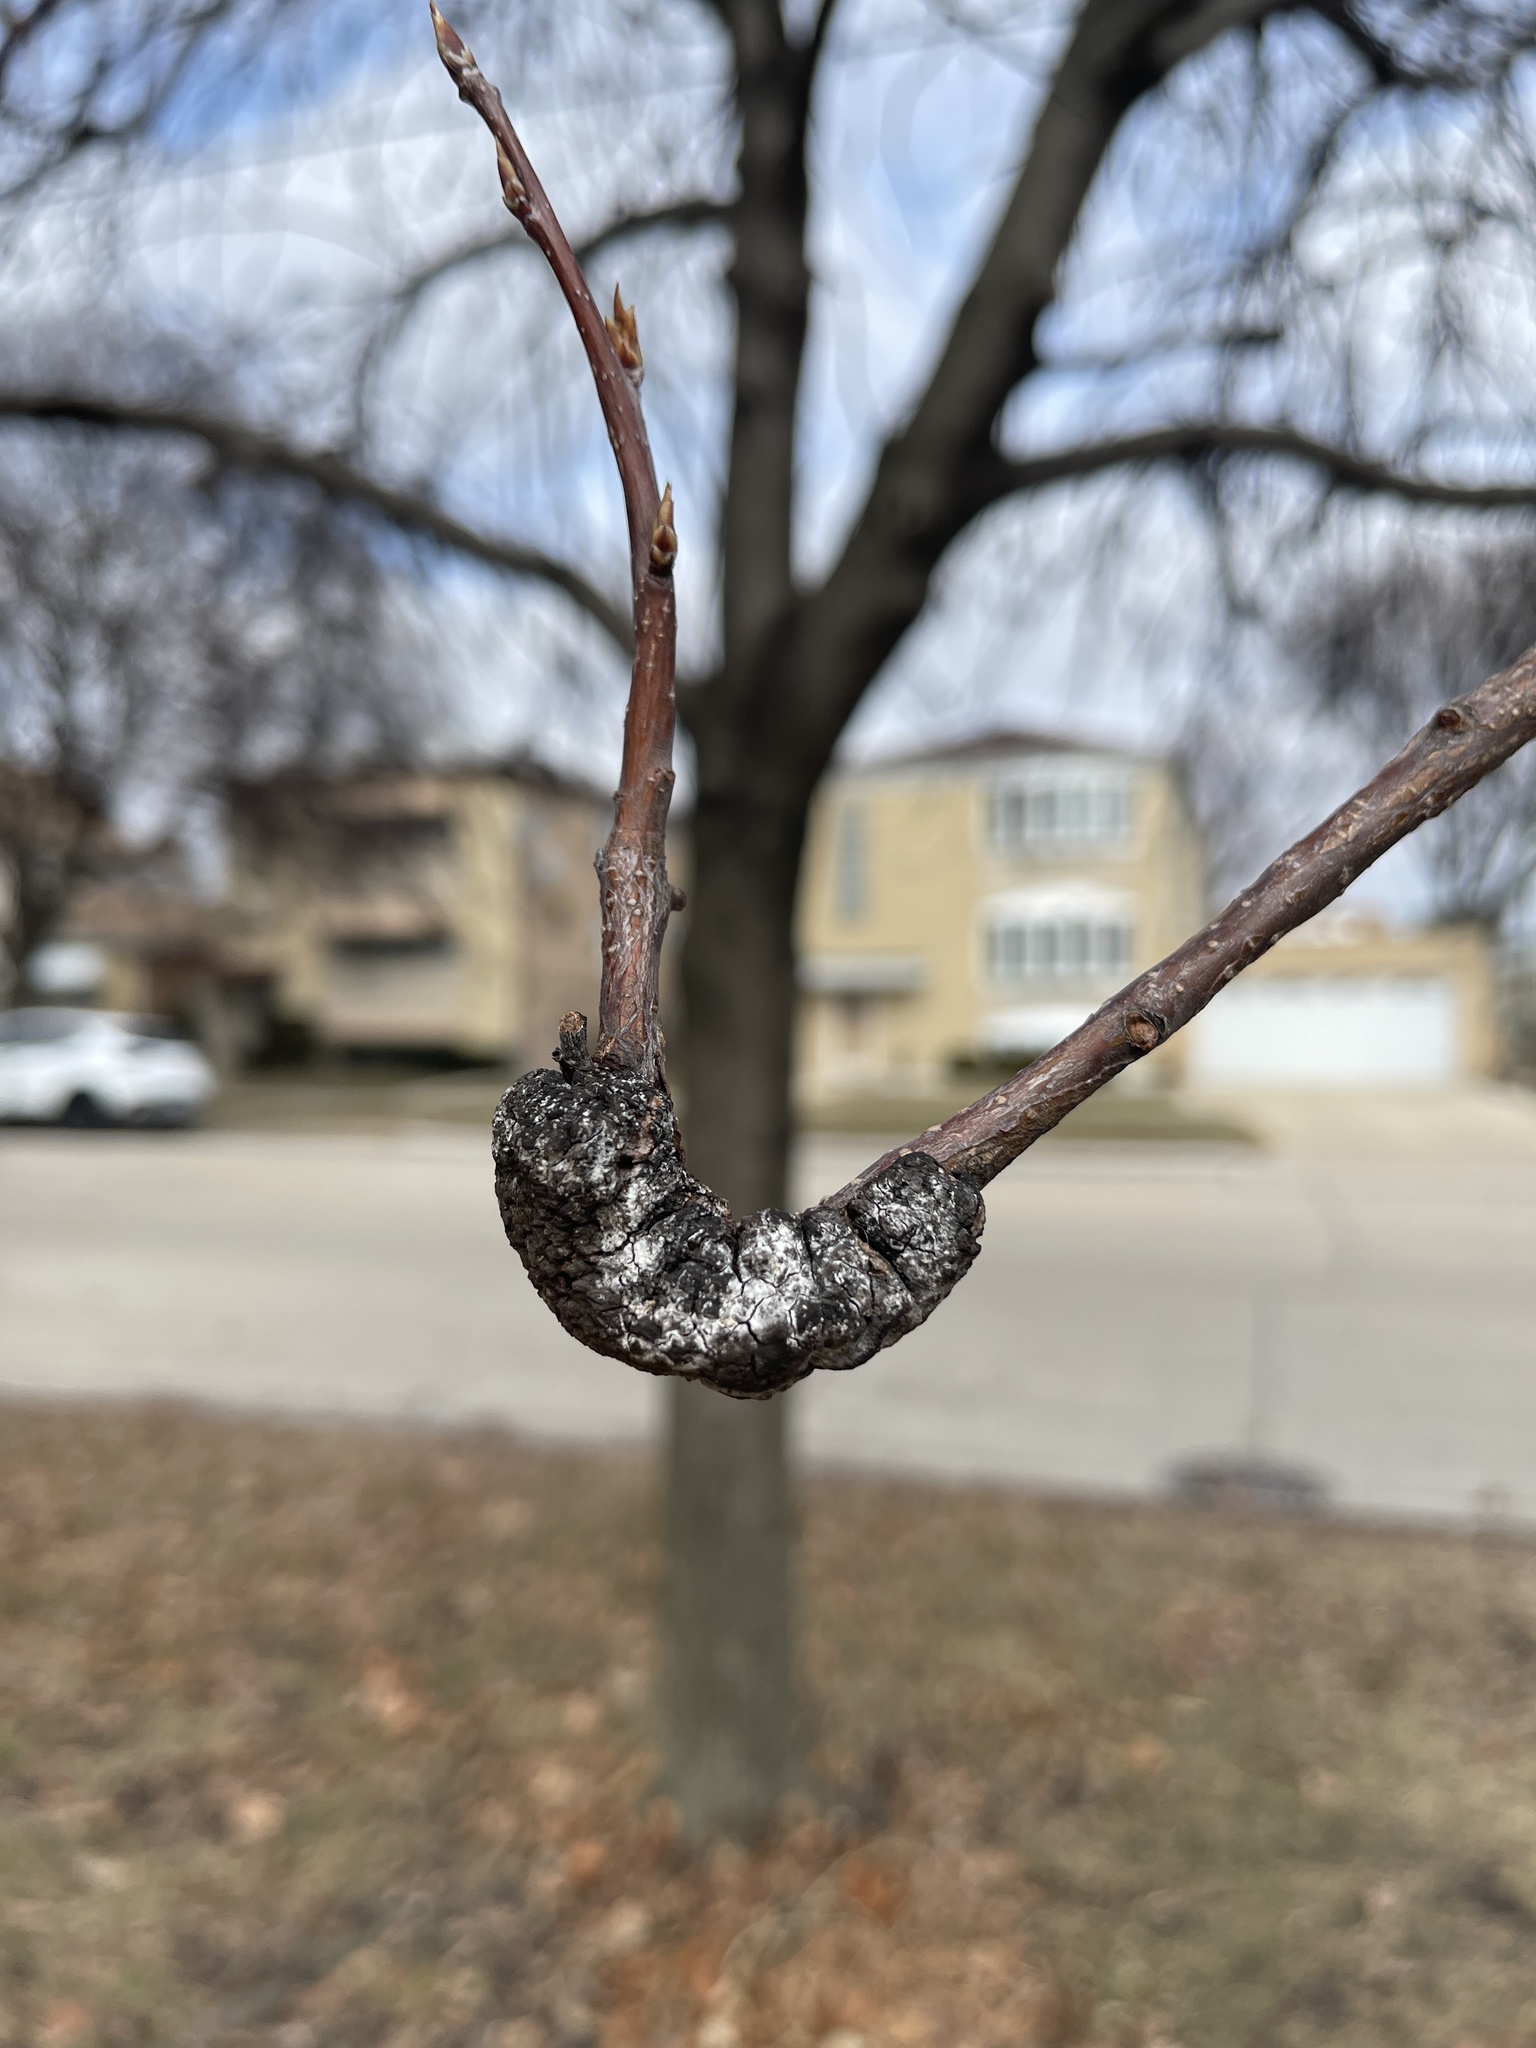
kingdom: Fungi
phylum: Ascomycota
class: Dothideomycetes
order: Venturiales
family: Venturiaceae
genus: Apiosporina
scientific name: Apiosporina morbosa
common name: Black knot
